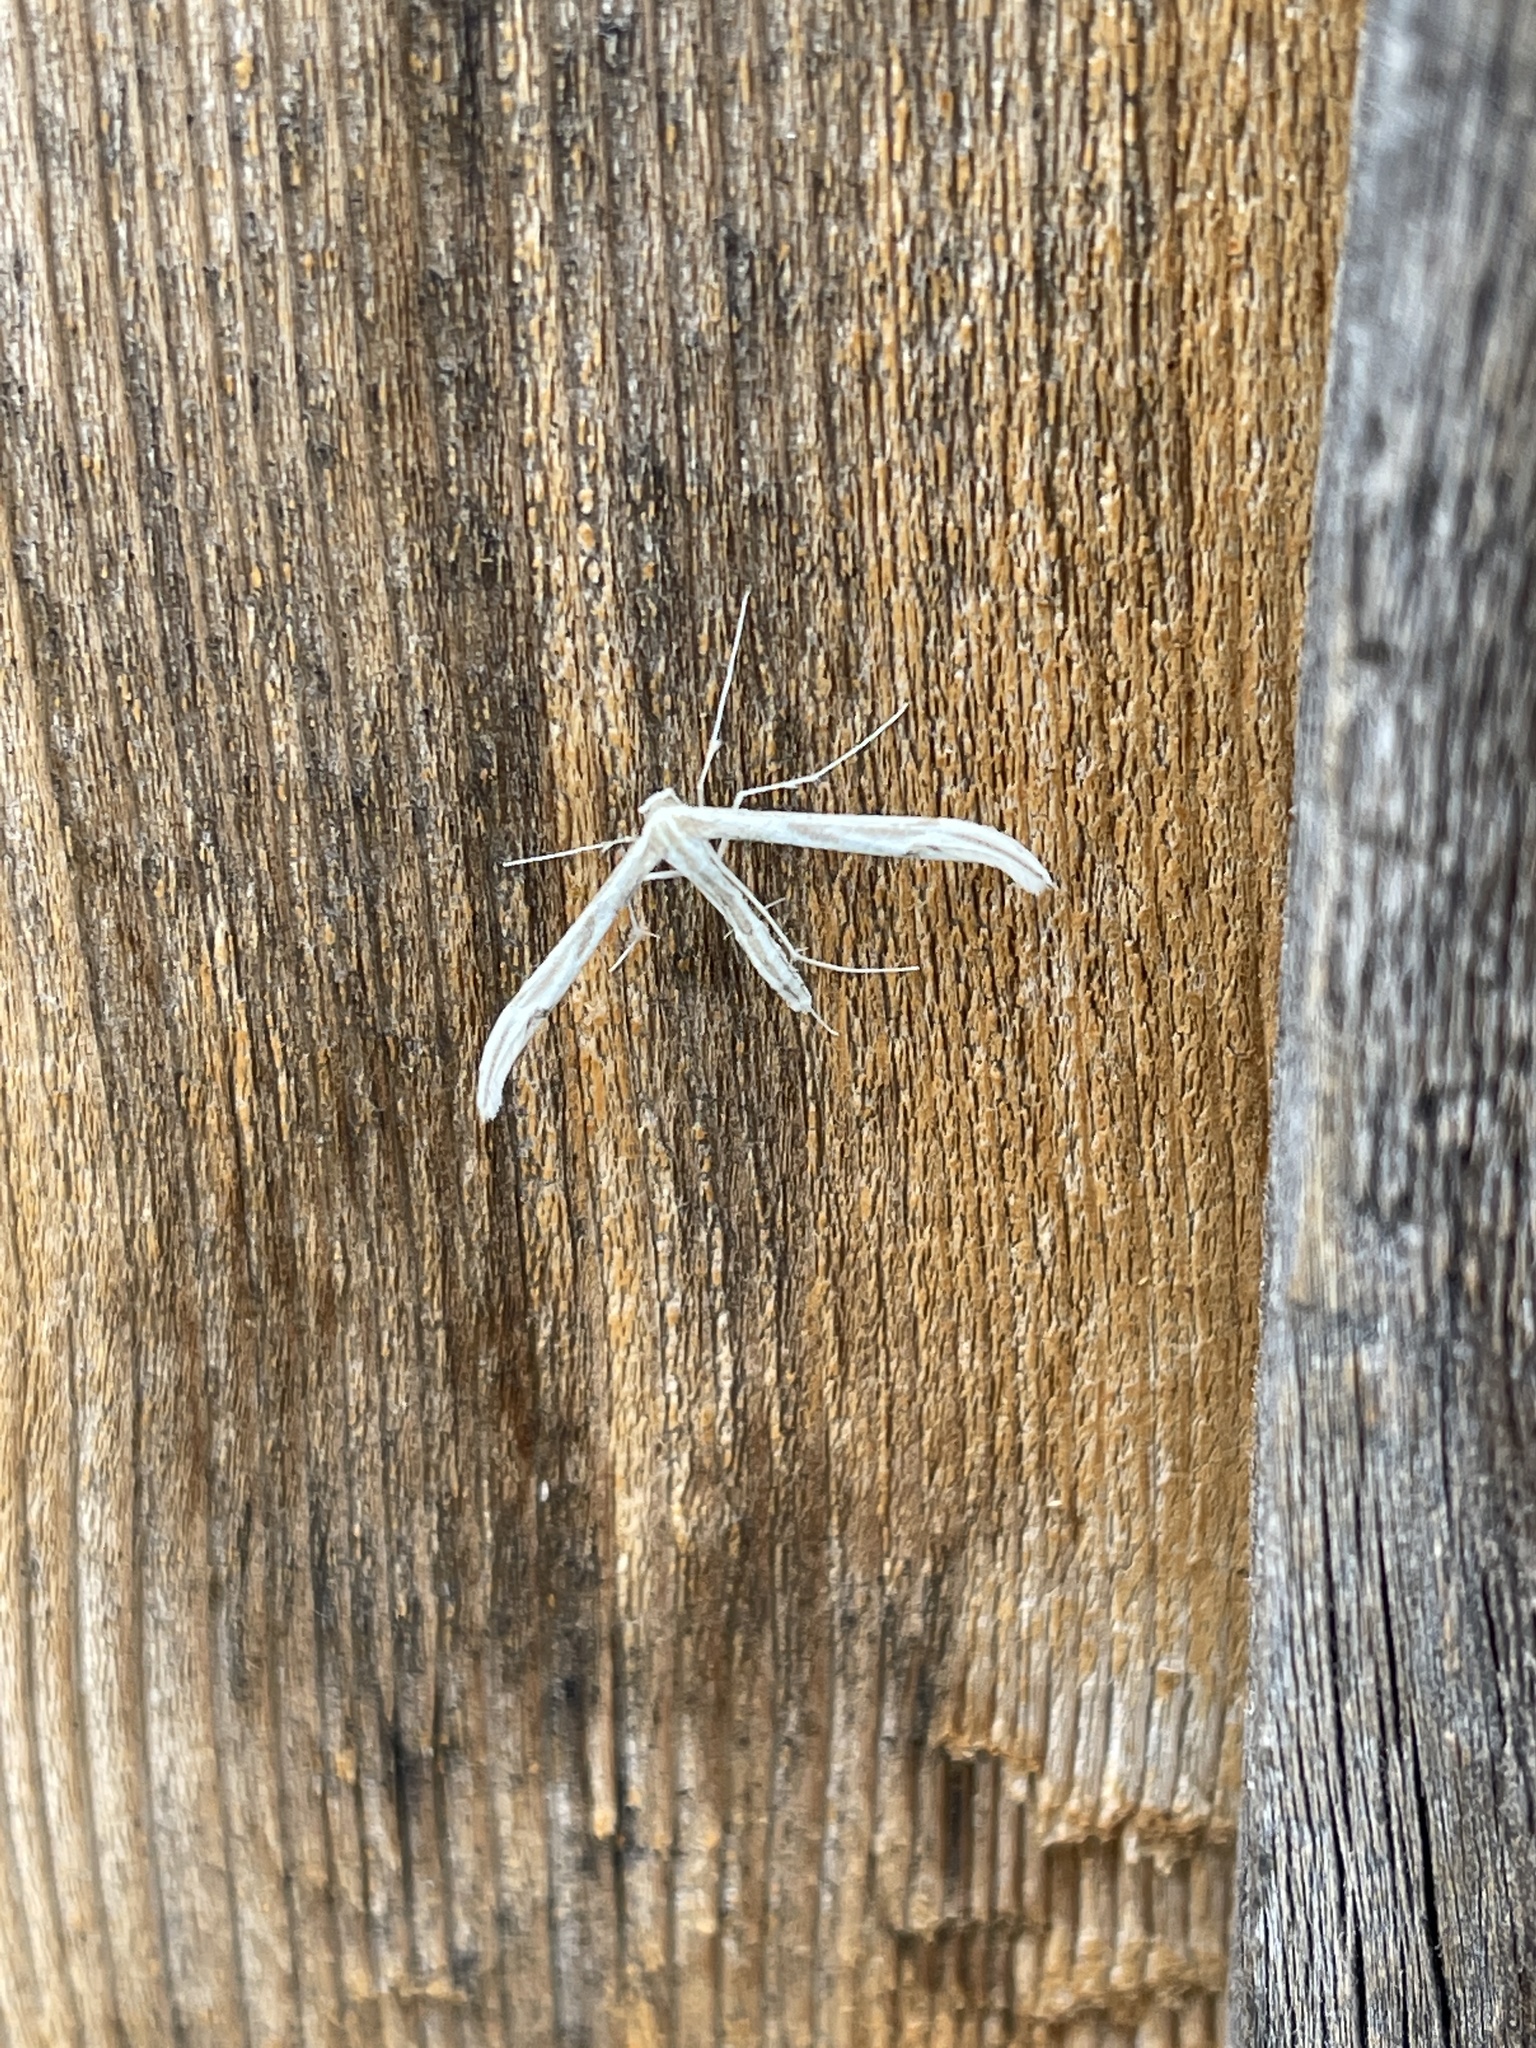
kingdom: Animalia
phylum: Arthropoda
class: Insecta
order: Lepidoptera
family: Pterophoridae
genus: Hellinsia
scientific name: Hellinsia hoguei
